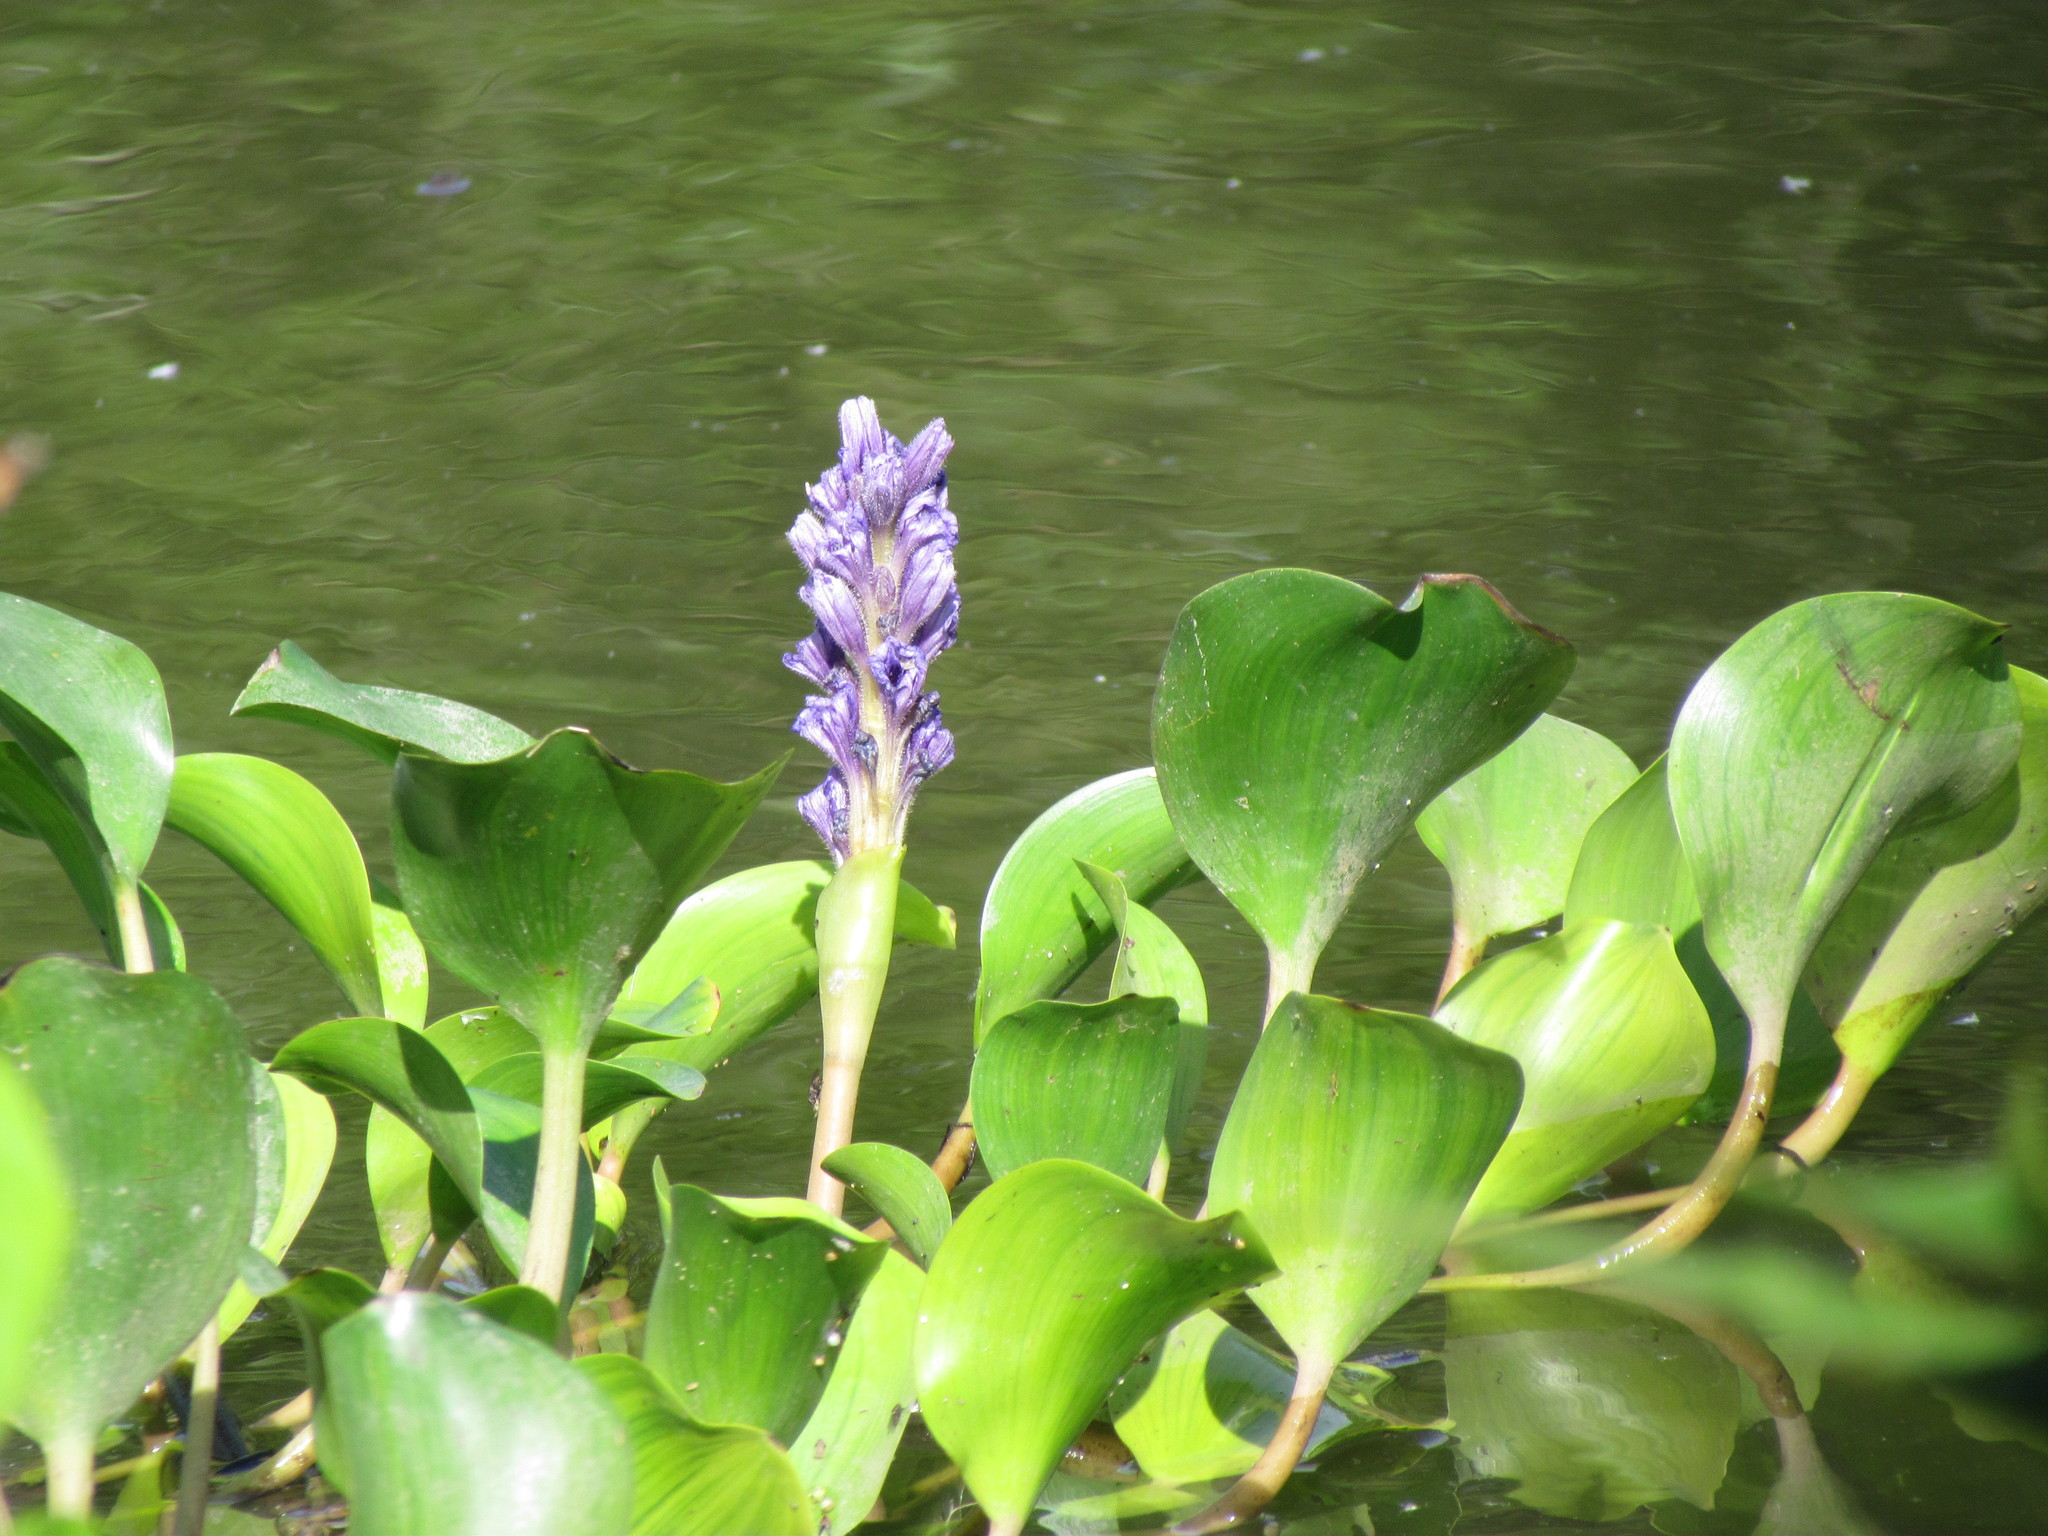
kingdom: Plantae
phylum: Tracheophyta
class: Liliopsida
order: Commelinales
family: Pontederiaceae
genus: Pontederia
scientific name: Pontederia azurea
